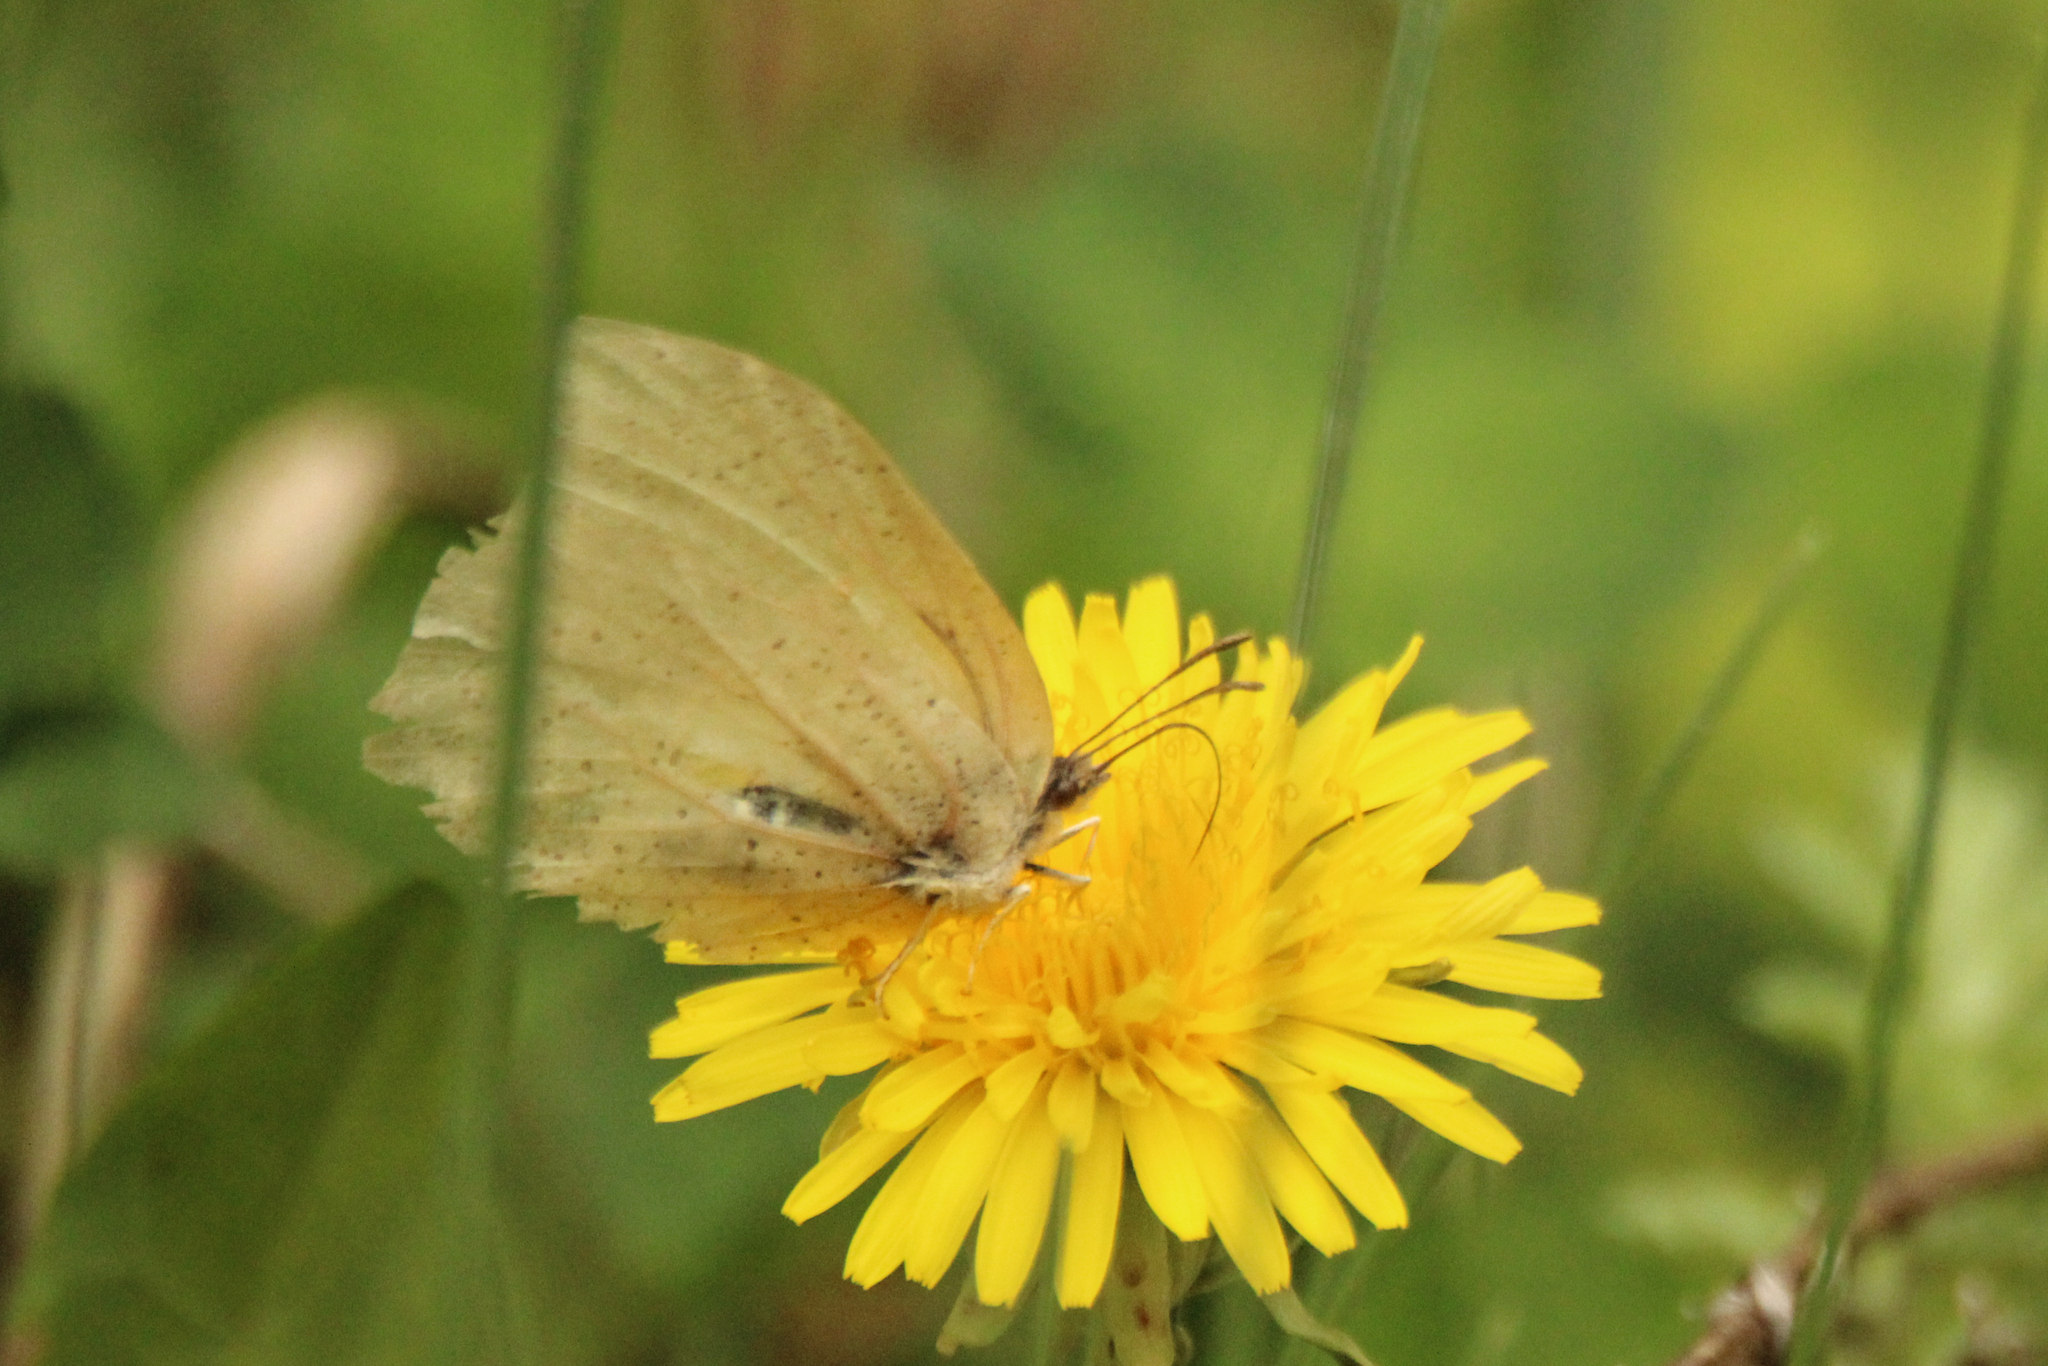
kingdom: Animalia
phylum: Arthropoda
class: Insecta
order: Lepidoptera
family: Pieridae
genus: Gonepteryx
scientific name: Gonepteryx aspasia
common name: Lesser brimstone
